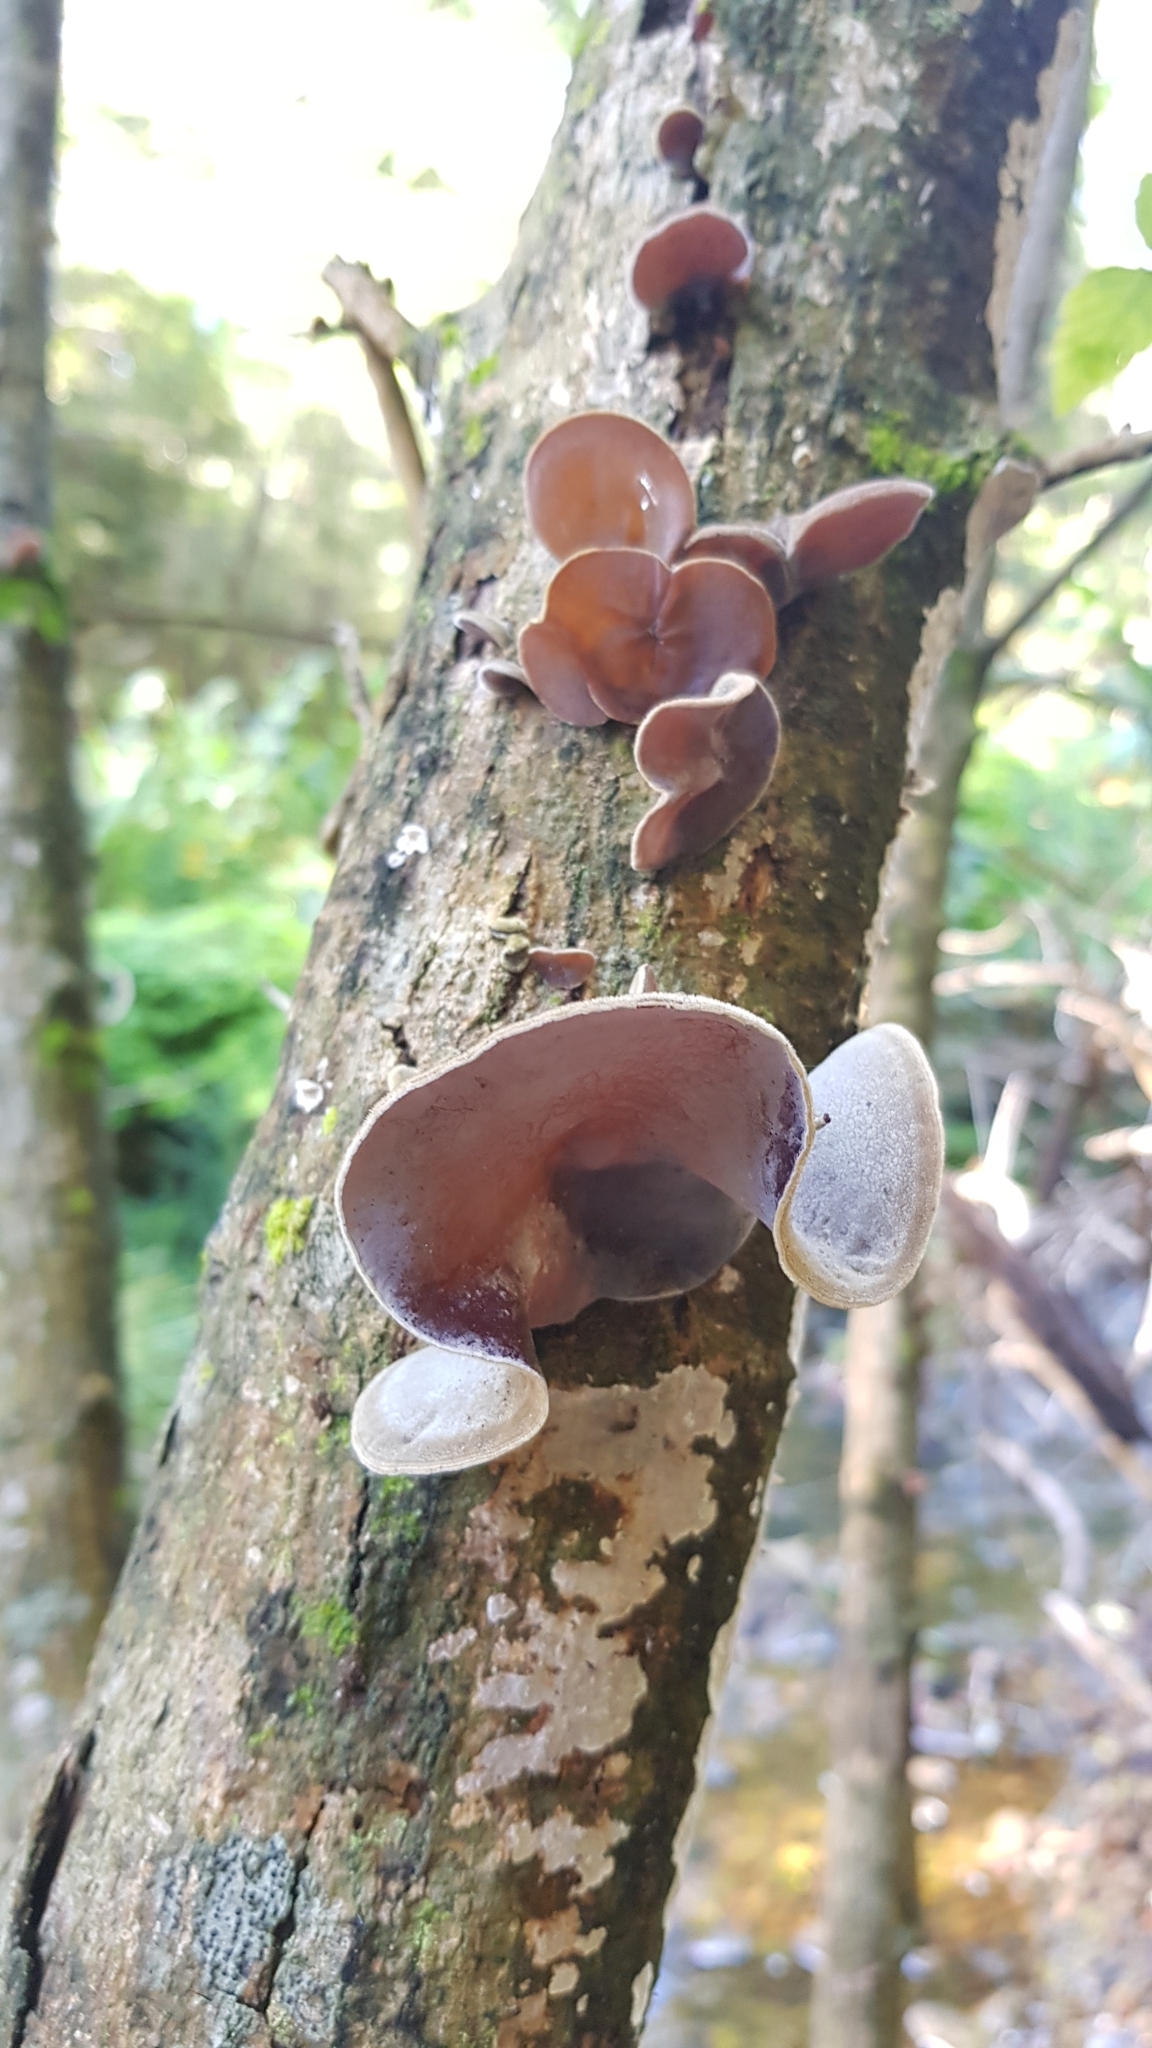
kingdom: Fungi
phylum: Basidiomycota
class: Agaricomycetes
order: Auriculariales
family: Auriculariaceae
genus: Auricularia
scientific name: Auricularia cornea
